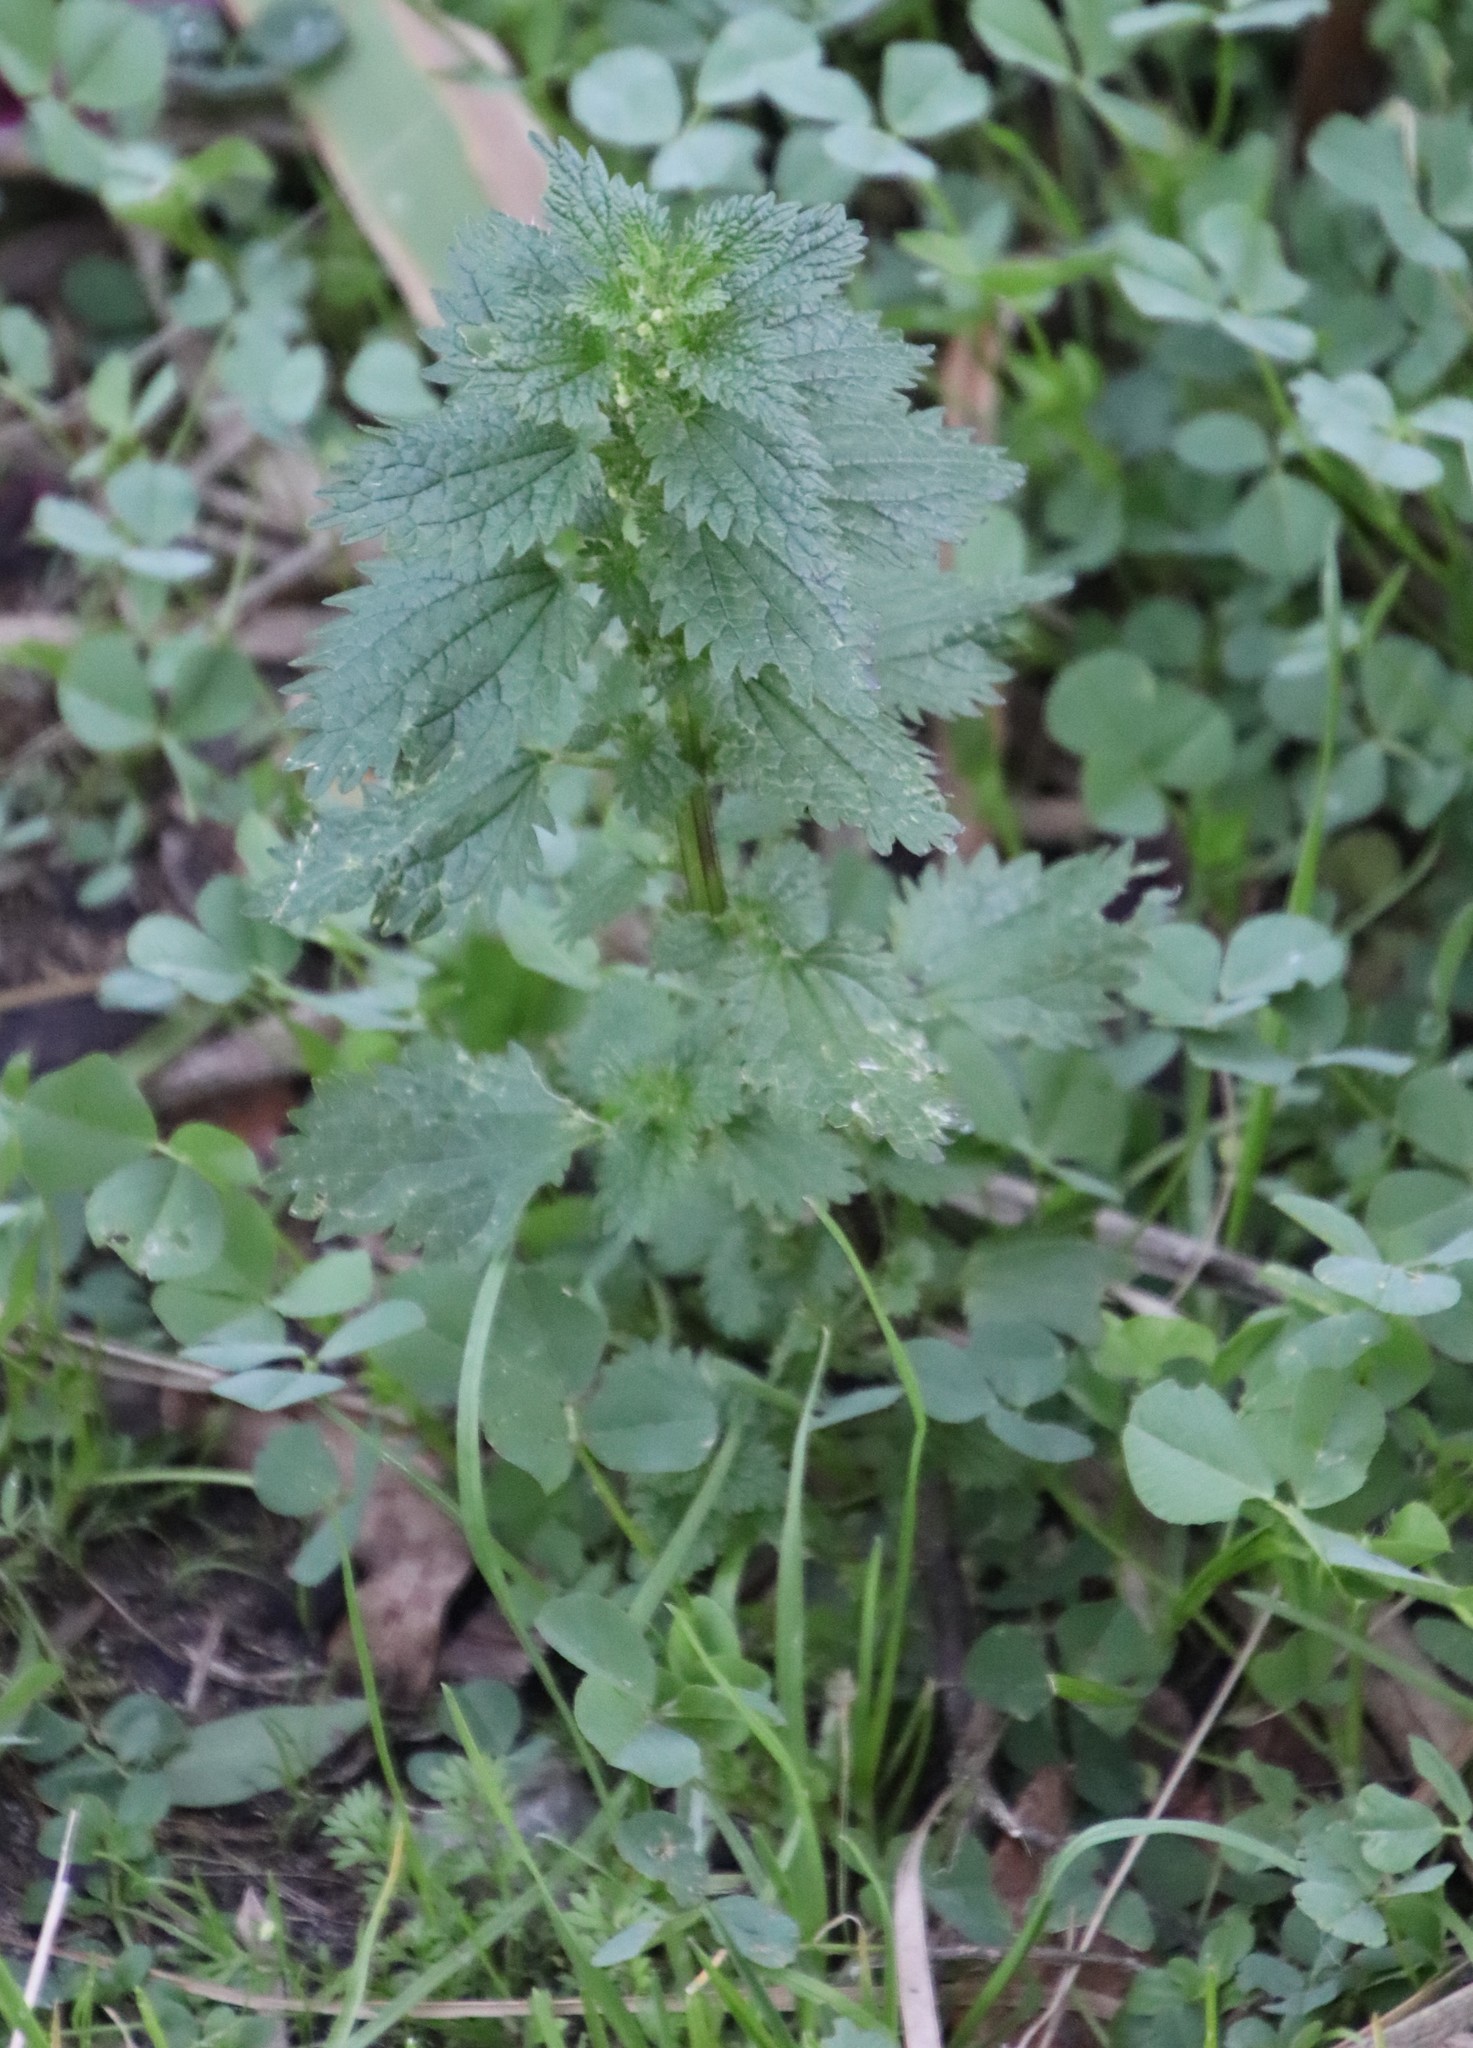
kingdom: Plantae
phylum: Tracheophyta
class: Magnoliopsida
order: Rosales
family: Urticaceae
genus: Urtica
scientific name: Urtica urens
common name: Dwarf nettle
